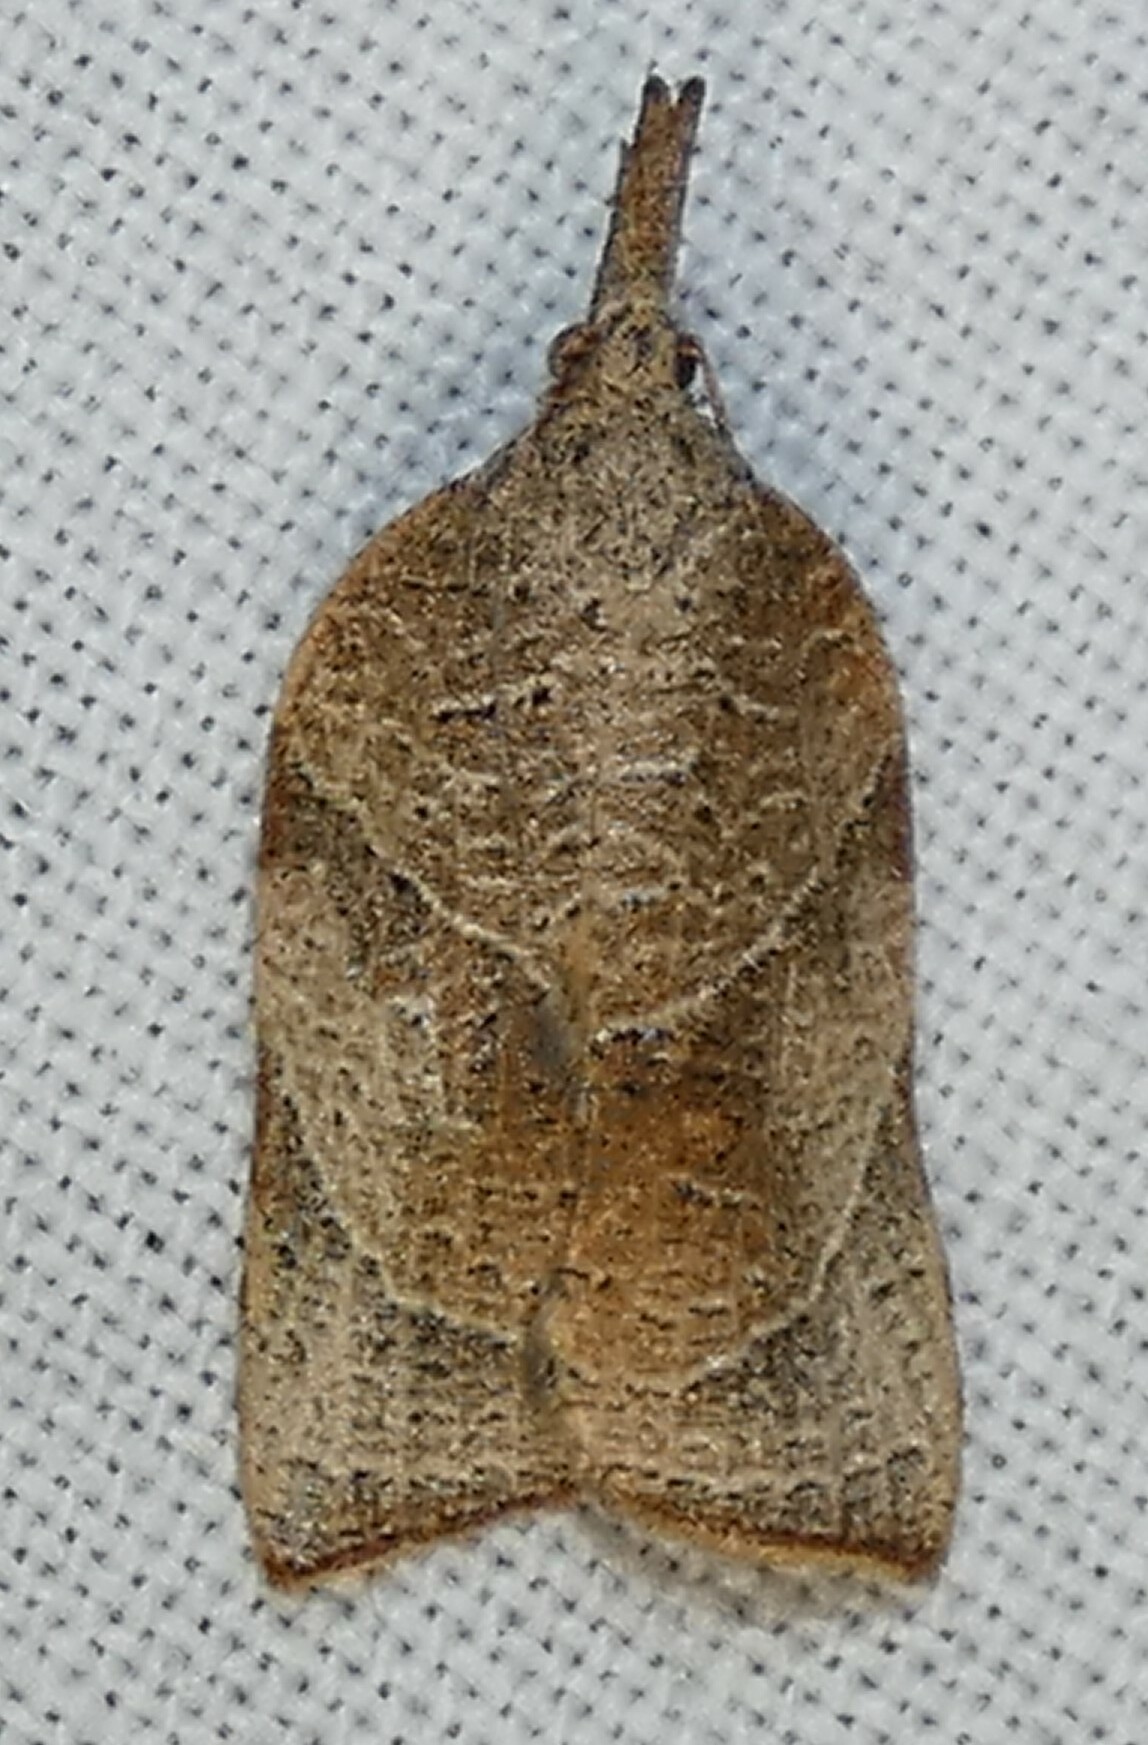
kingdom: Animalia
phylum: Arthropoda
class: Insecta
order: Lepidoptera
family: Tortricidae
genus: Platynota
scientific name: Platynota rostrana
